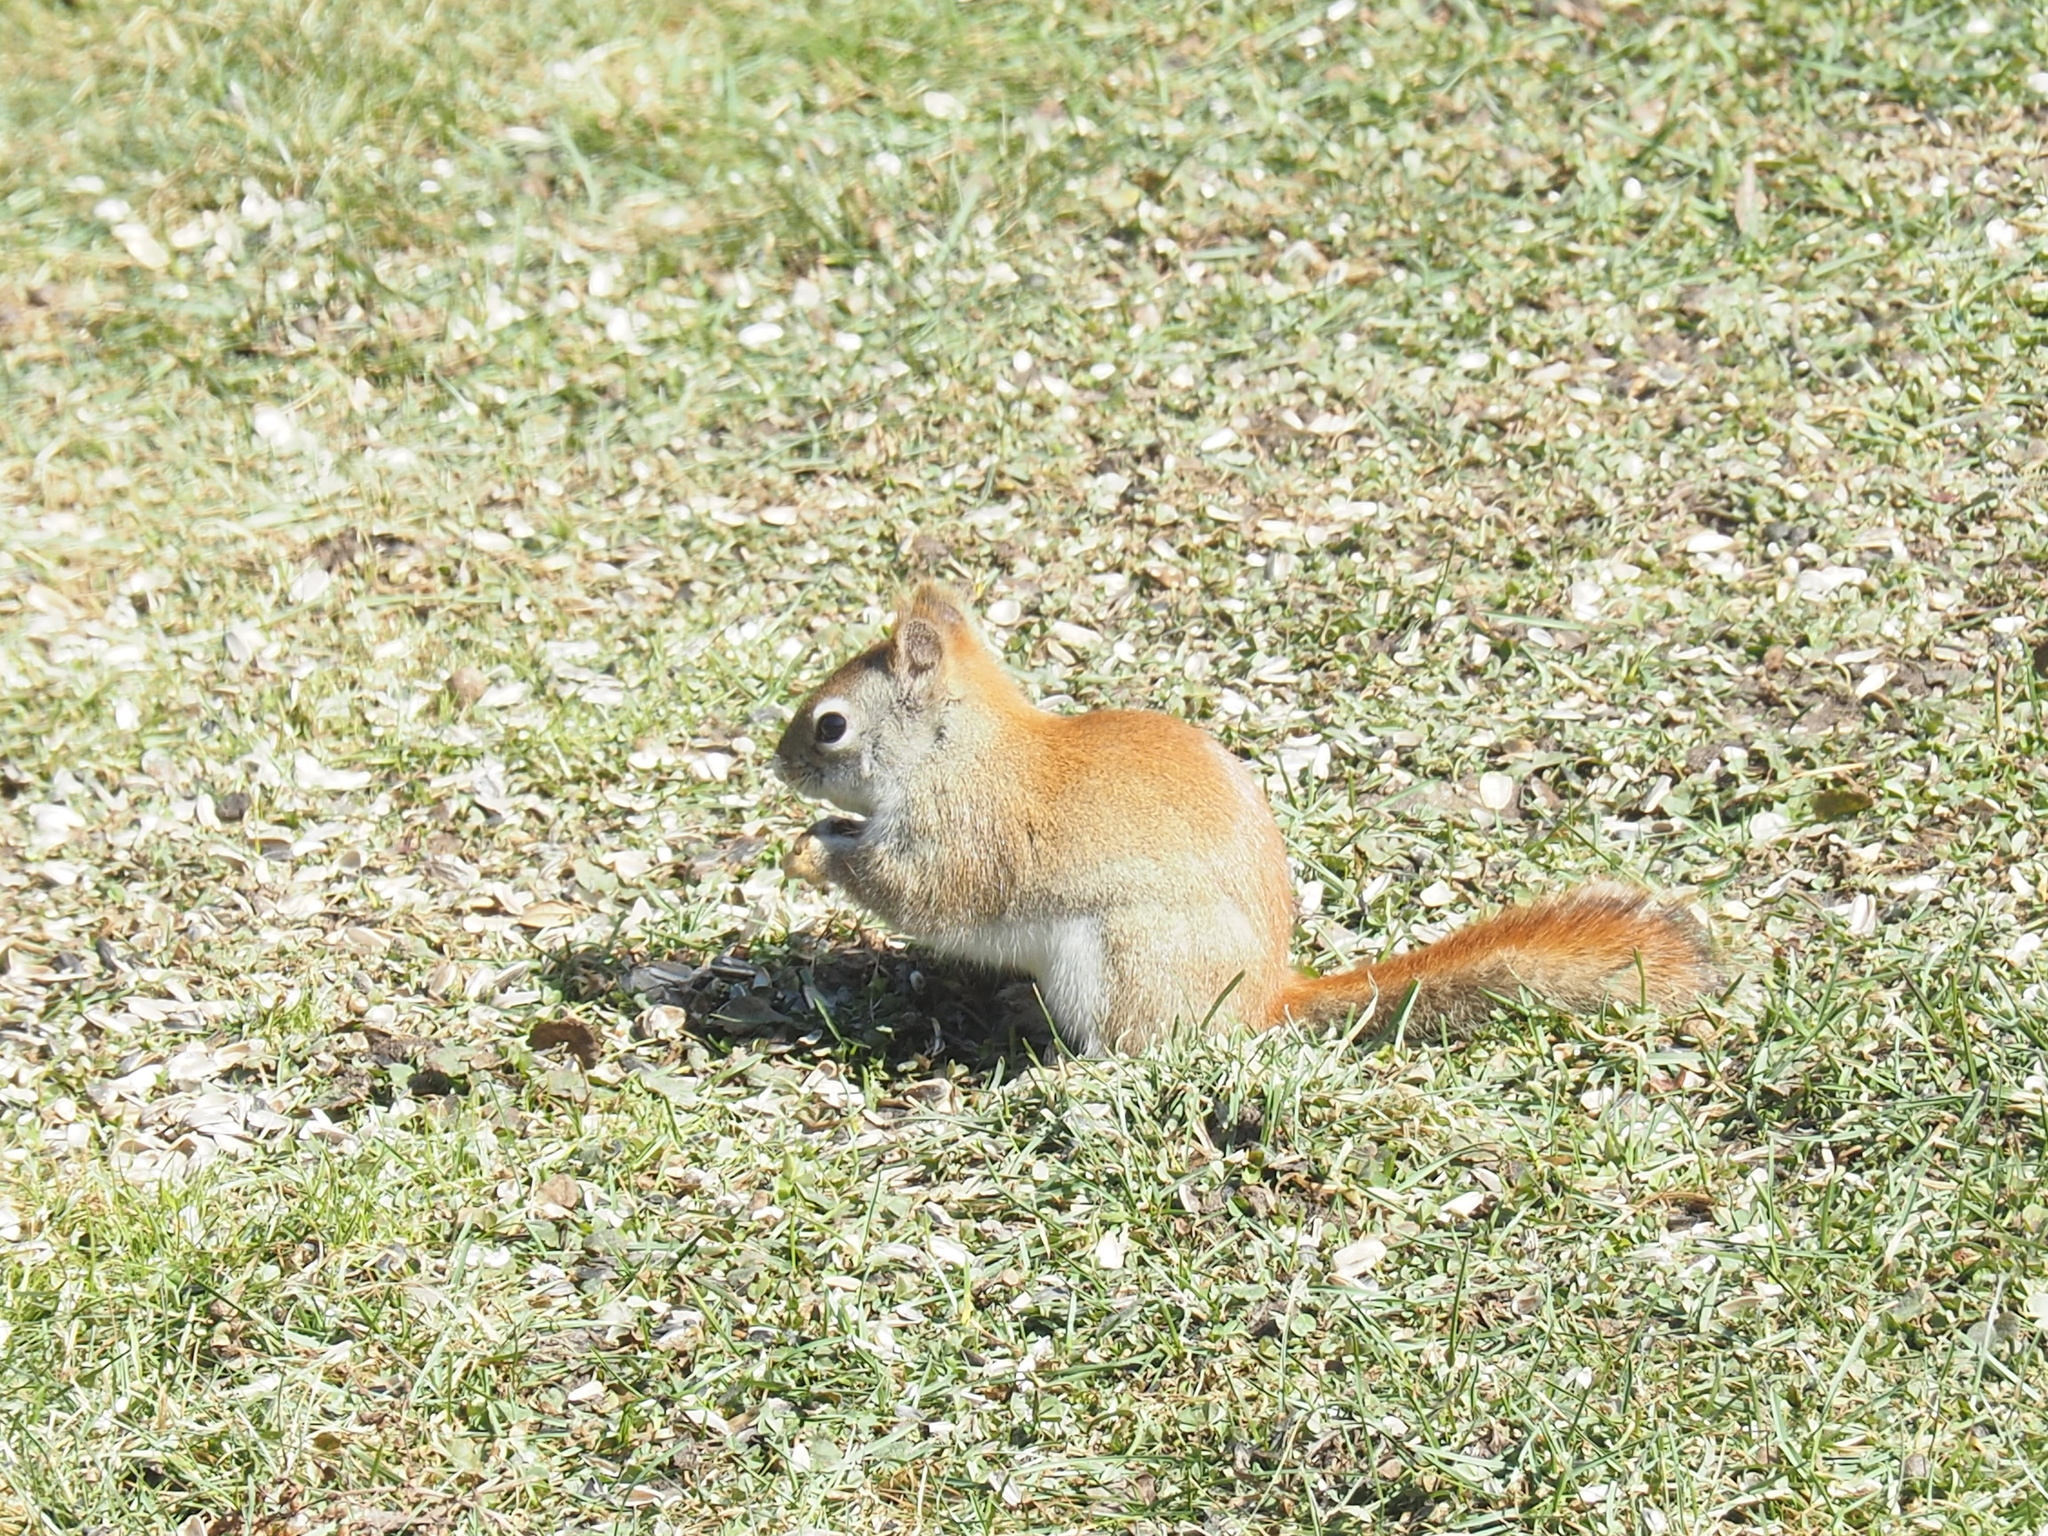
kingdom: Animalia
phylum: Chordata
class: Mammalia
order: Rodentia
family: Sciuridae
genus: Tamiasciurus
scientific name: Tamiasciurus hudsonicus
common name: Red squirrel
